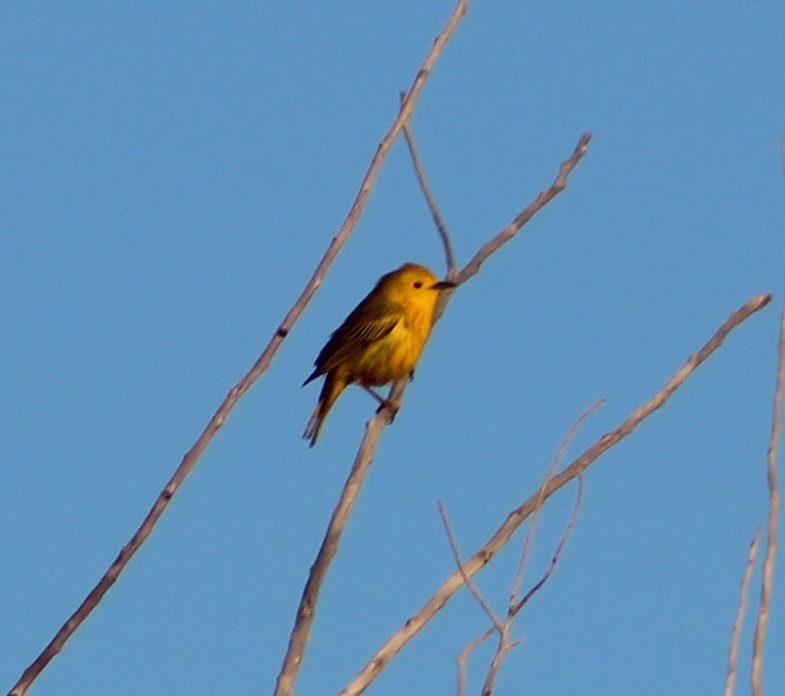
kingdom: Animalia
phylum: Chordata
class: Aves
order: Passeriformes
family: Parulidae
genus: Setophaga
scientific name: Setophaga petechia
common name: Yellow warbler
